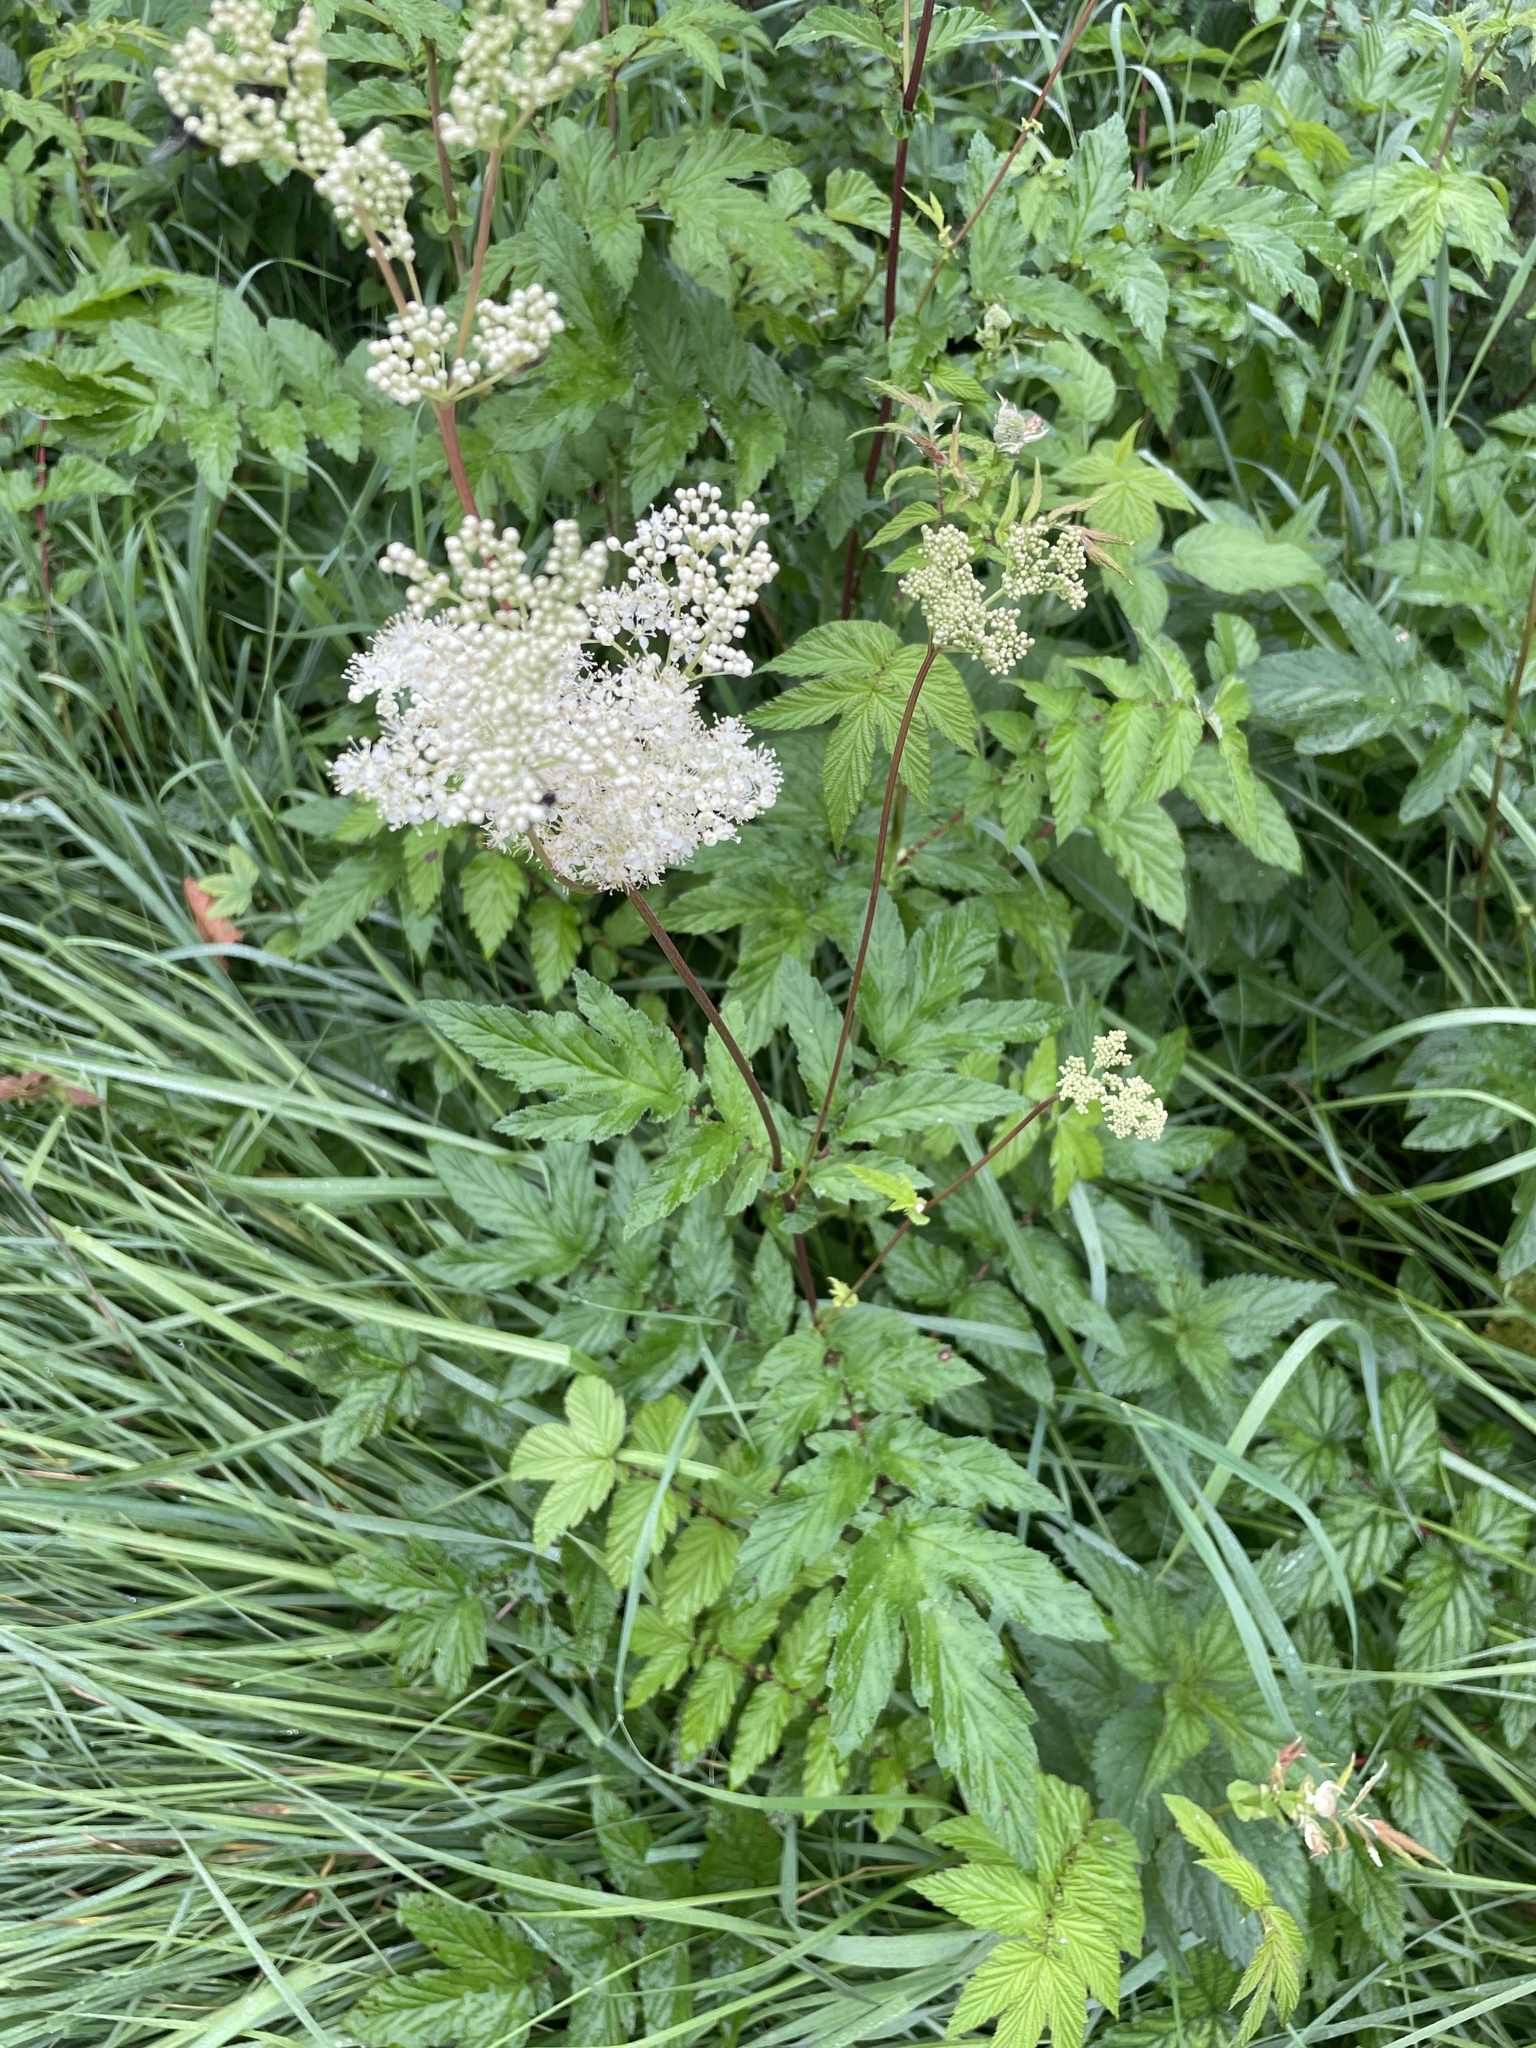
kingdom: Plantae
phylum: Tracheophyta
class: Magnoliopsida
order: Rosales
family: Rosaceae
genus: Filipendula
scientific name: Filipendula ulmaria
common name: Meadowsweet
